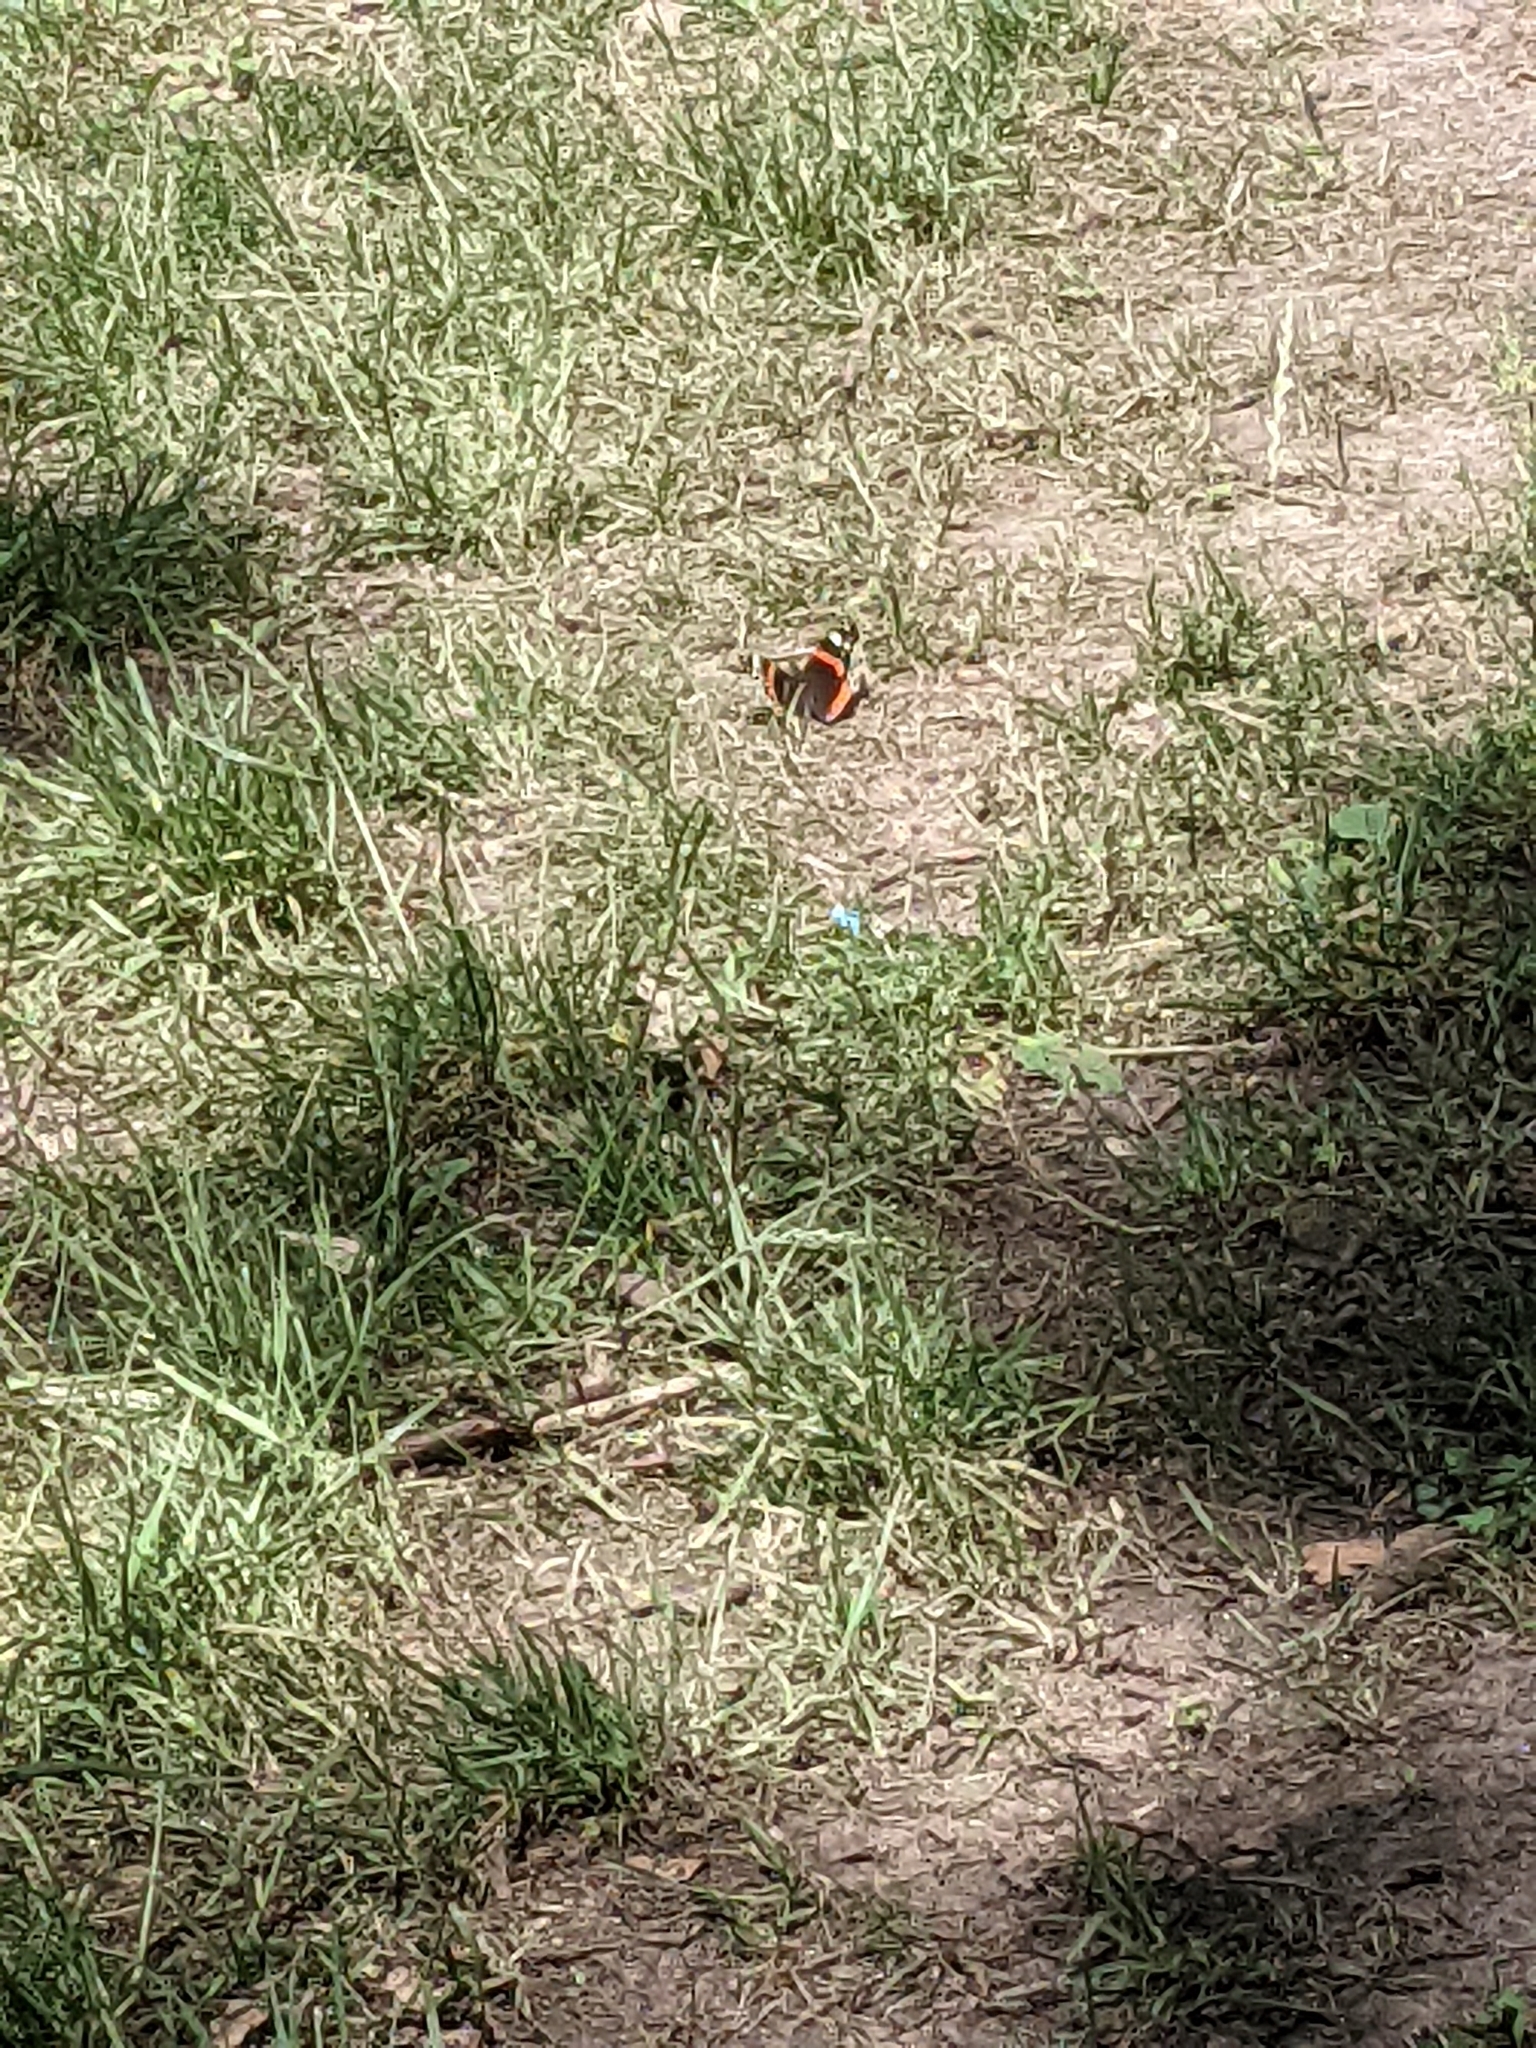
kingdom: Animalia
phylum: Arthropoda
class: Insecta
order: Lepidoptera
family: Nymphalidae
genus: Vanessa
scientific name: Vanessa atalanta
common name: Red admiral
